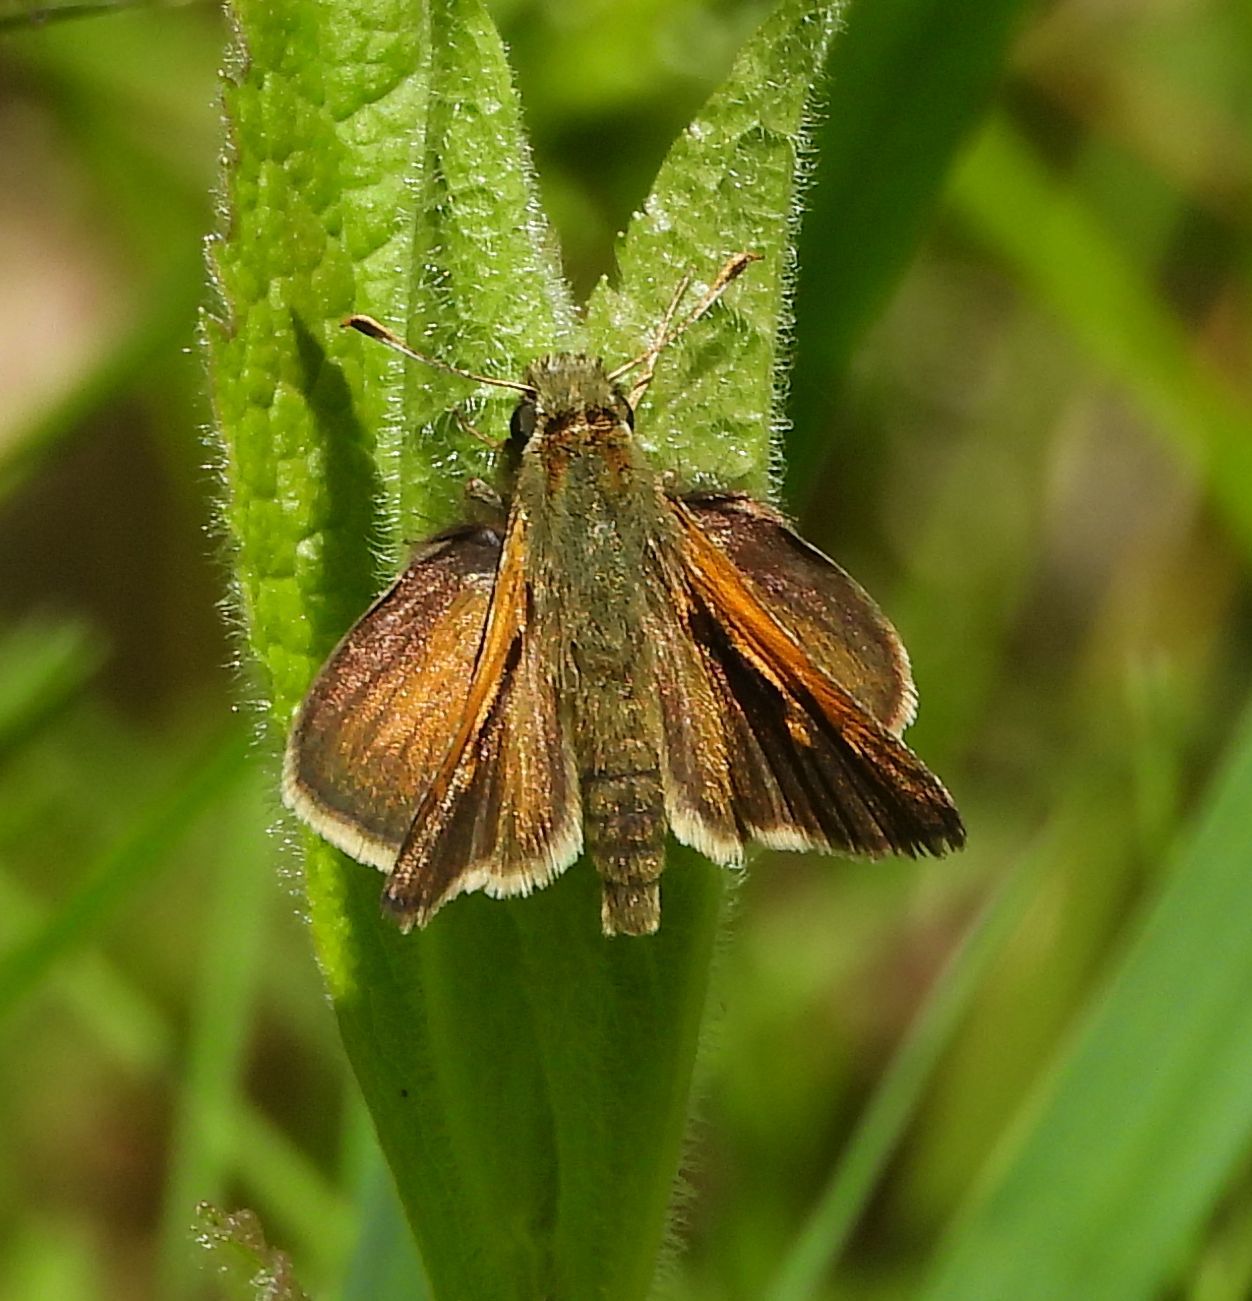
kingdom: Animalia
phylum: Arthropoda
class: Insecta
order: Lepidoptera
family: Hesperiidae
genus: Polites
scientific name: Polites themistocles
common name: Tawny-edged skipper
